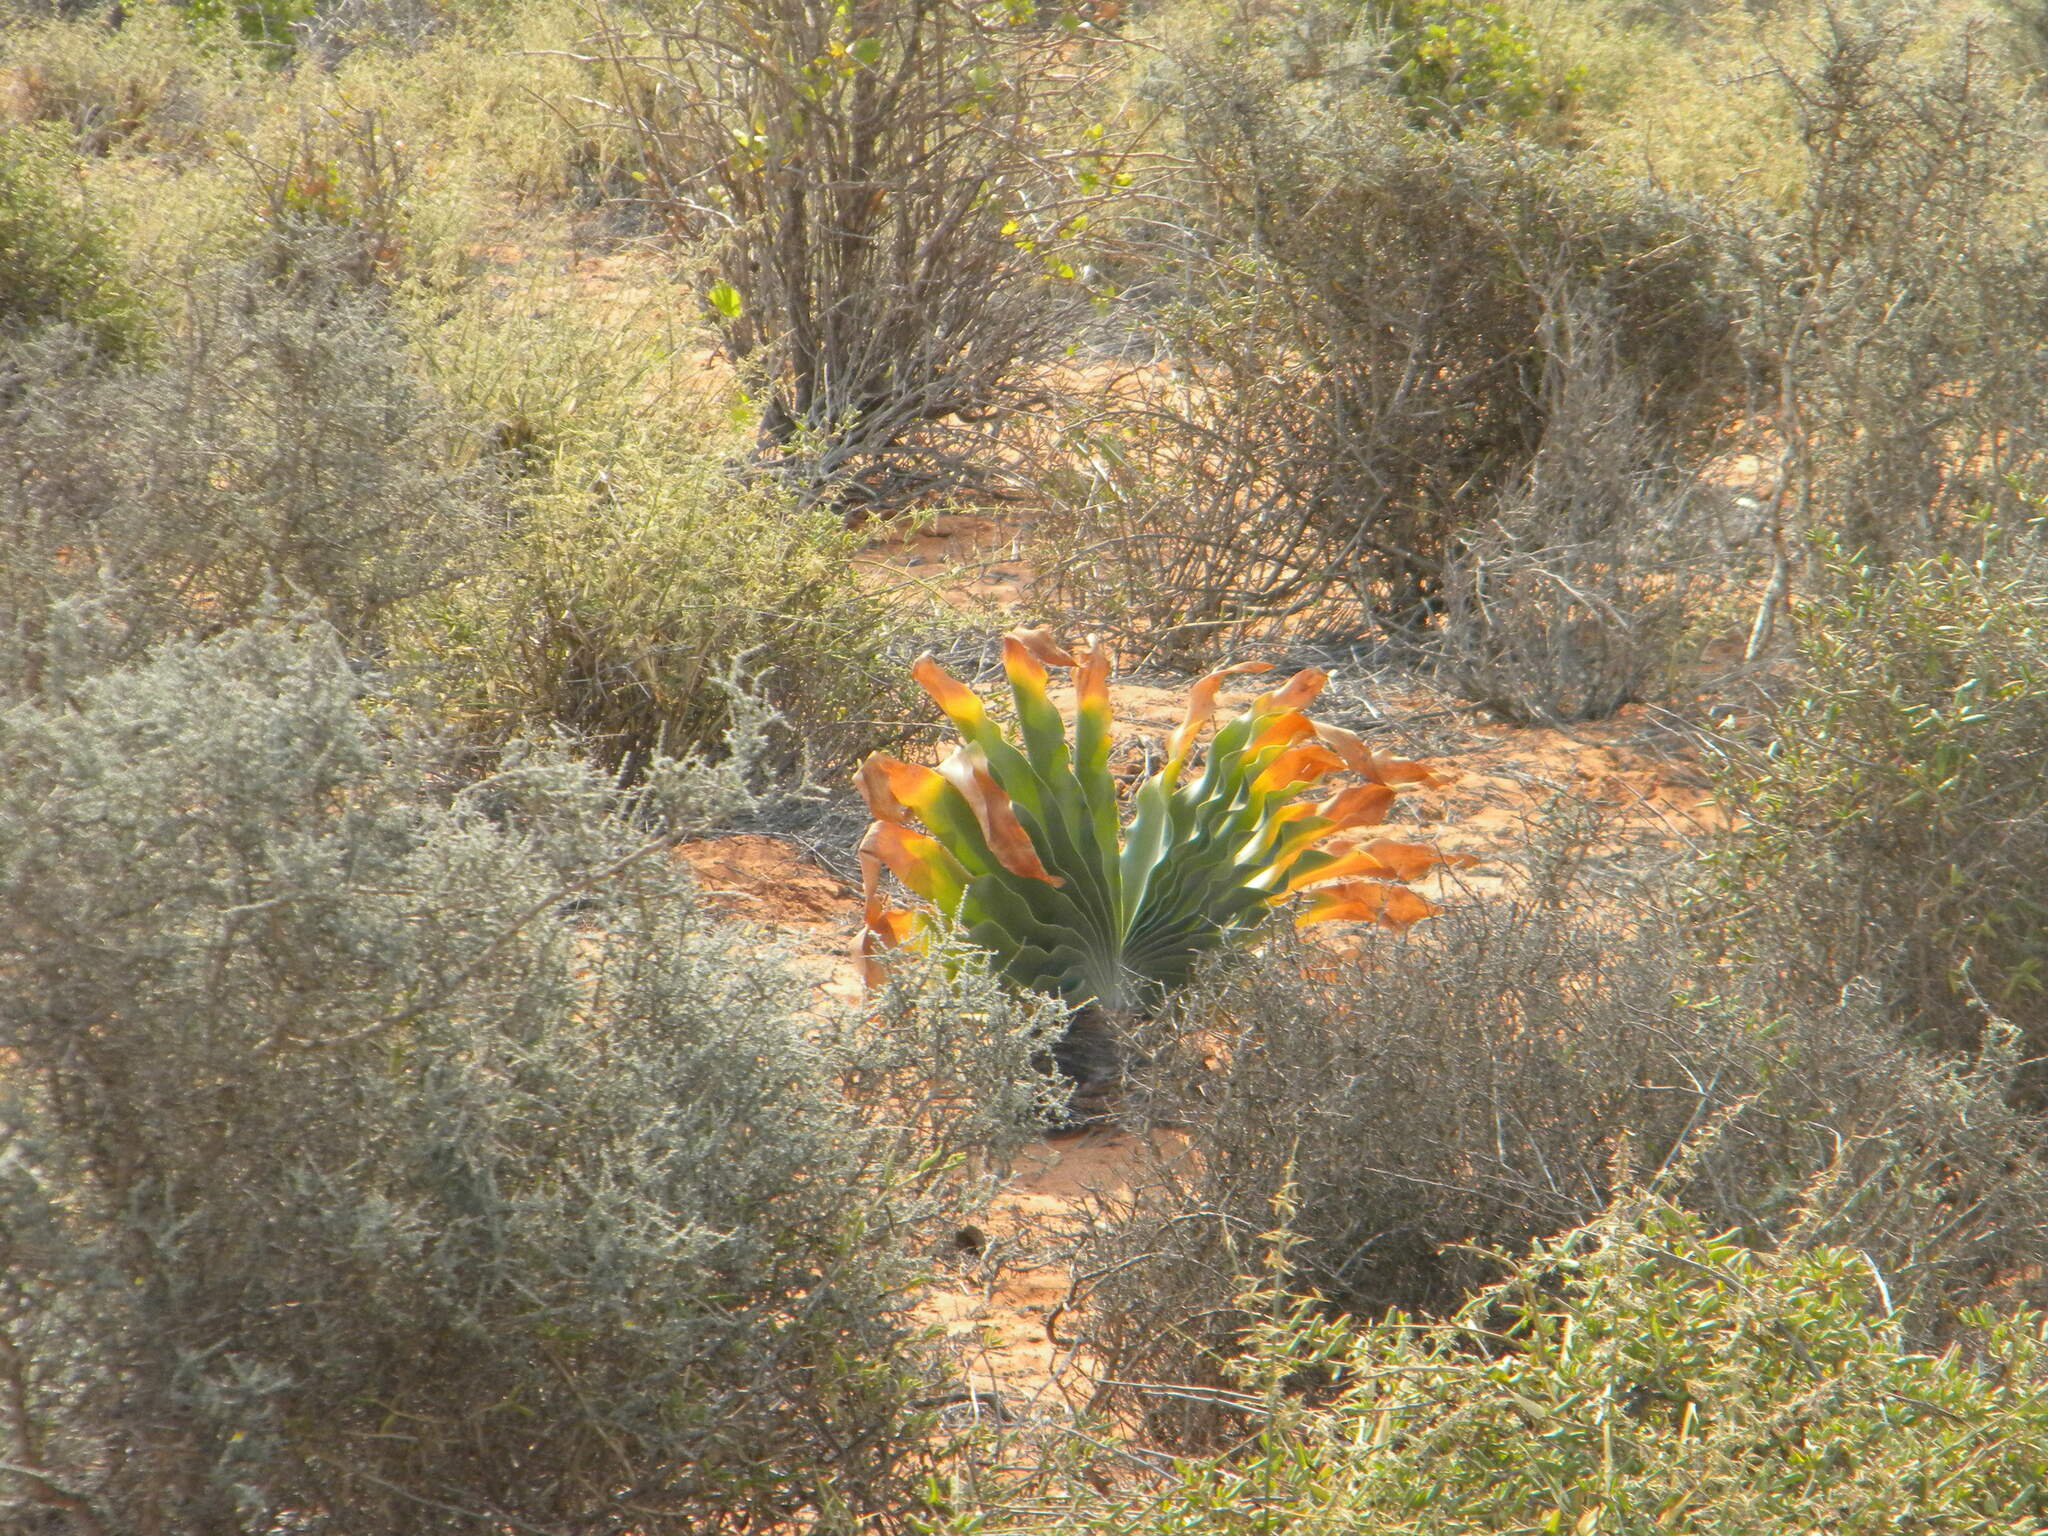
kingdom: Plantae
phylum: Tracheophyta
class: Liliopsida
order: Asparagales
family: Amaryllidaceae
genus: Boophone
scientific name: Boophone haemanthoides
